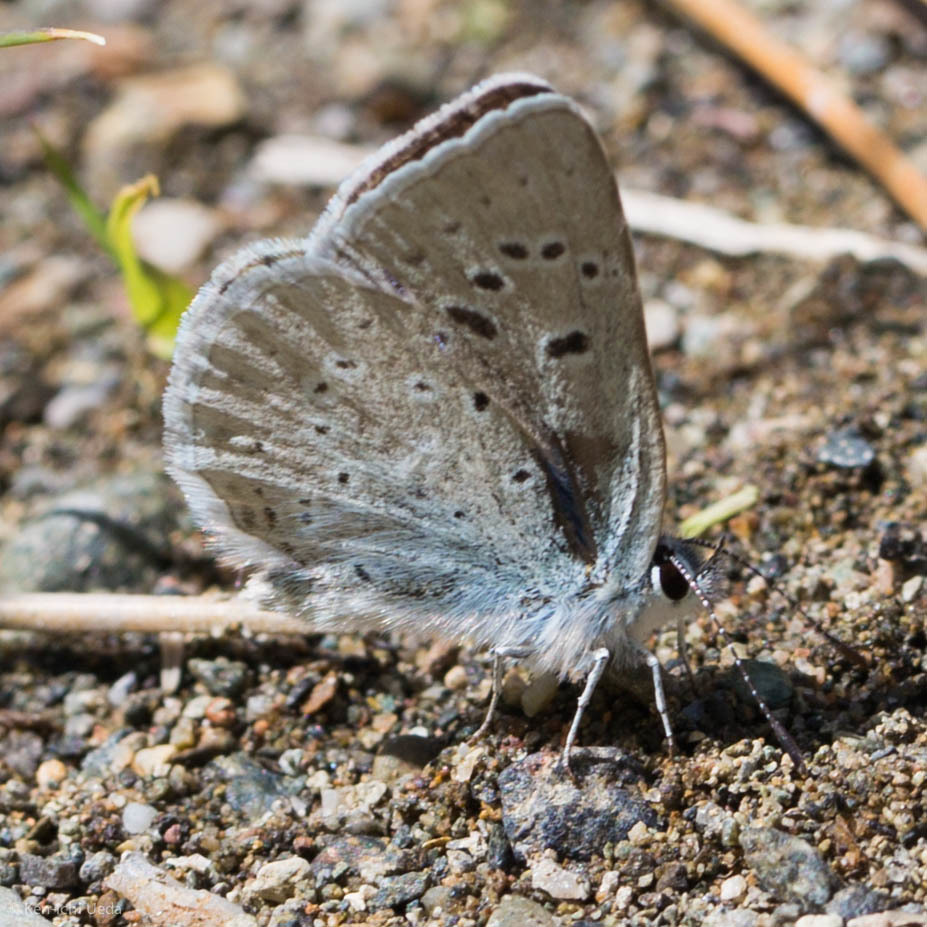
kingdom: Animalia
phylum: Arthropoda
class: Insecta
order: Lepidoptera
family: Lycaenidae
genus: Icaricia
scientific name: Icaricia icarioides
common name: Boisduval's blue
